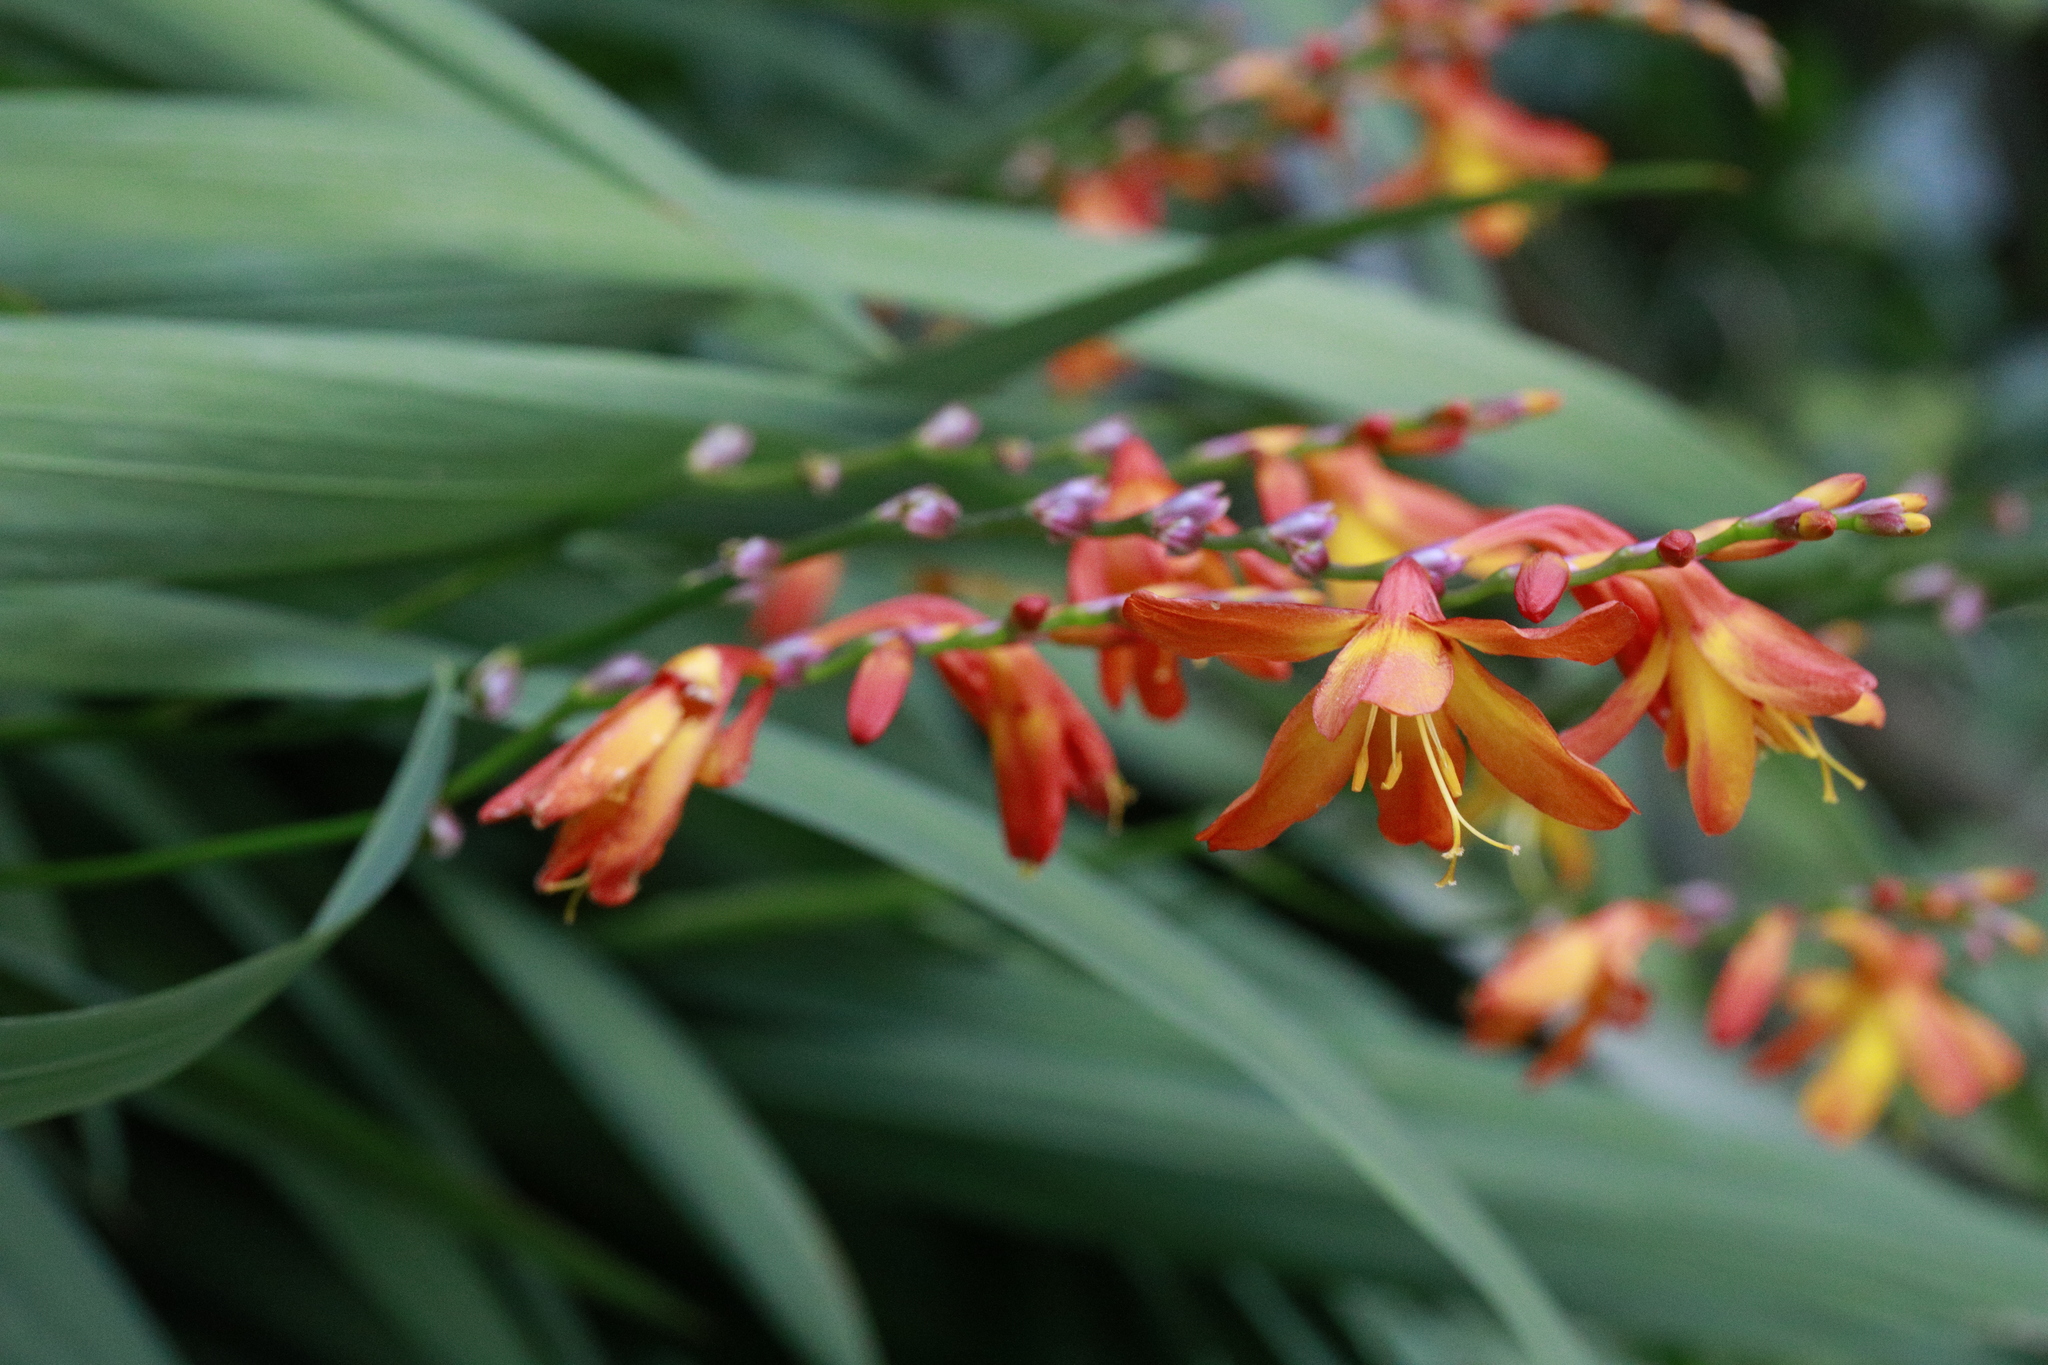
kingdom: Plantae
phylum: Tracheophyta
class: Liliopsida
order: Asparagales
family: Iridaceae
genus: Crocosmia
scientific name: Crocosmia crocosmiiflora
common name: Montbretia
